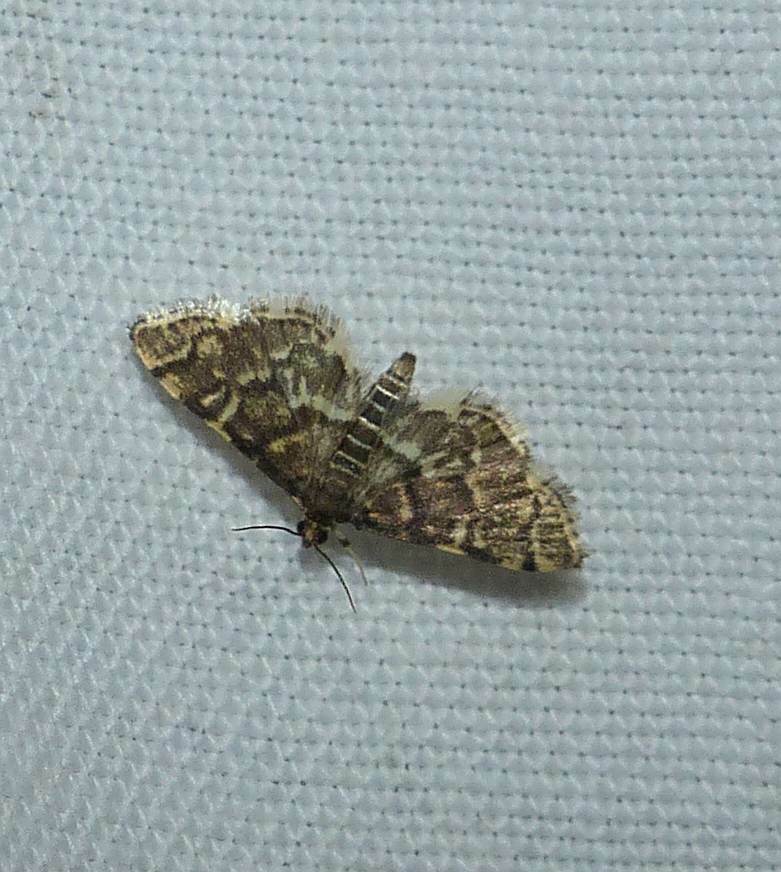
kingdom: Animalia
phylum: Arthropoda
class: Insecta
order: Lepidoptera
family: Crambidae
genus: Anageshna
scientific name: Anageshna primordialis
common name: Yellow-spotted webworm moth
